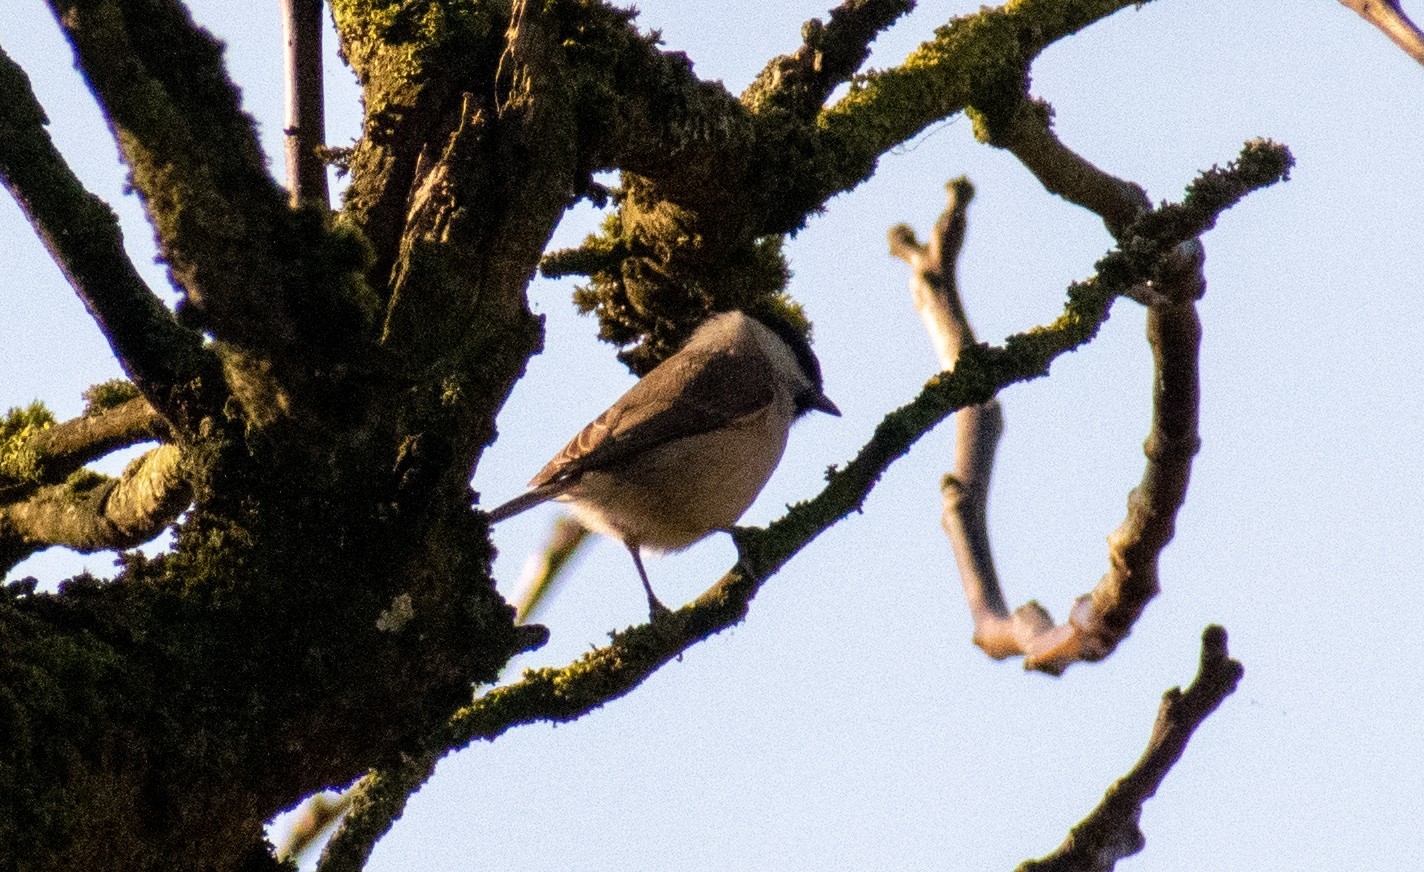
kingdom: Animalia
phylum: Chordata
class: Aves
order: Passeriformes
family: Paridae
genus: Poecile
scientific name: Poecile palustris
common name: Marsh tit
